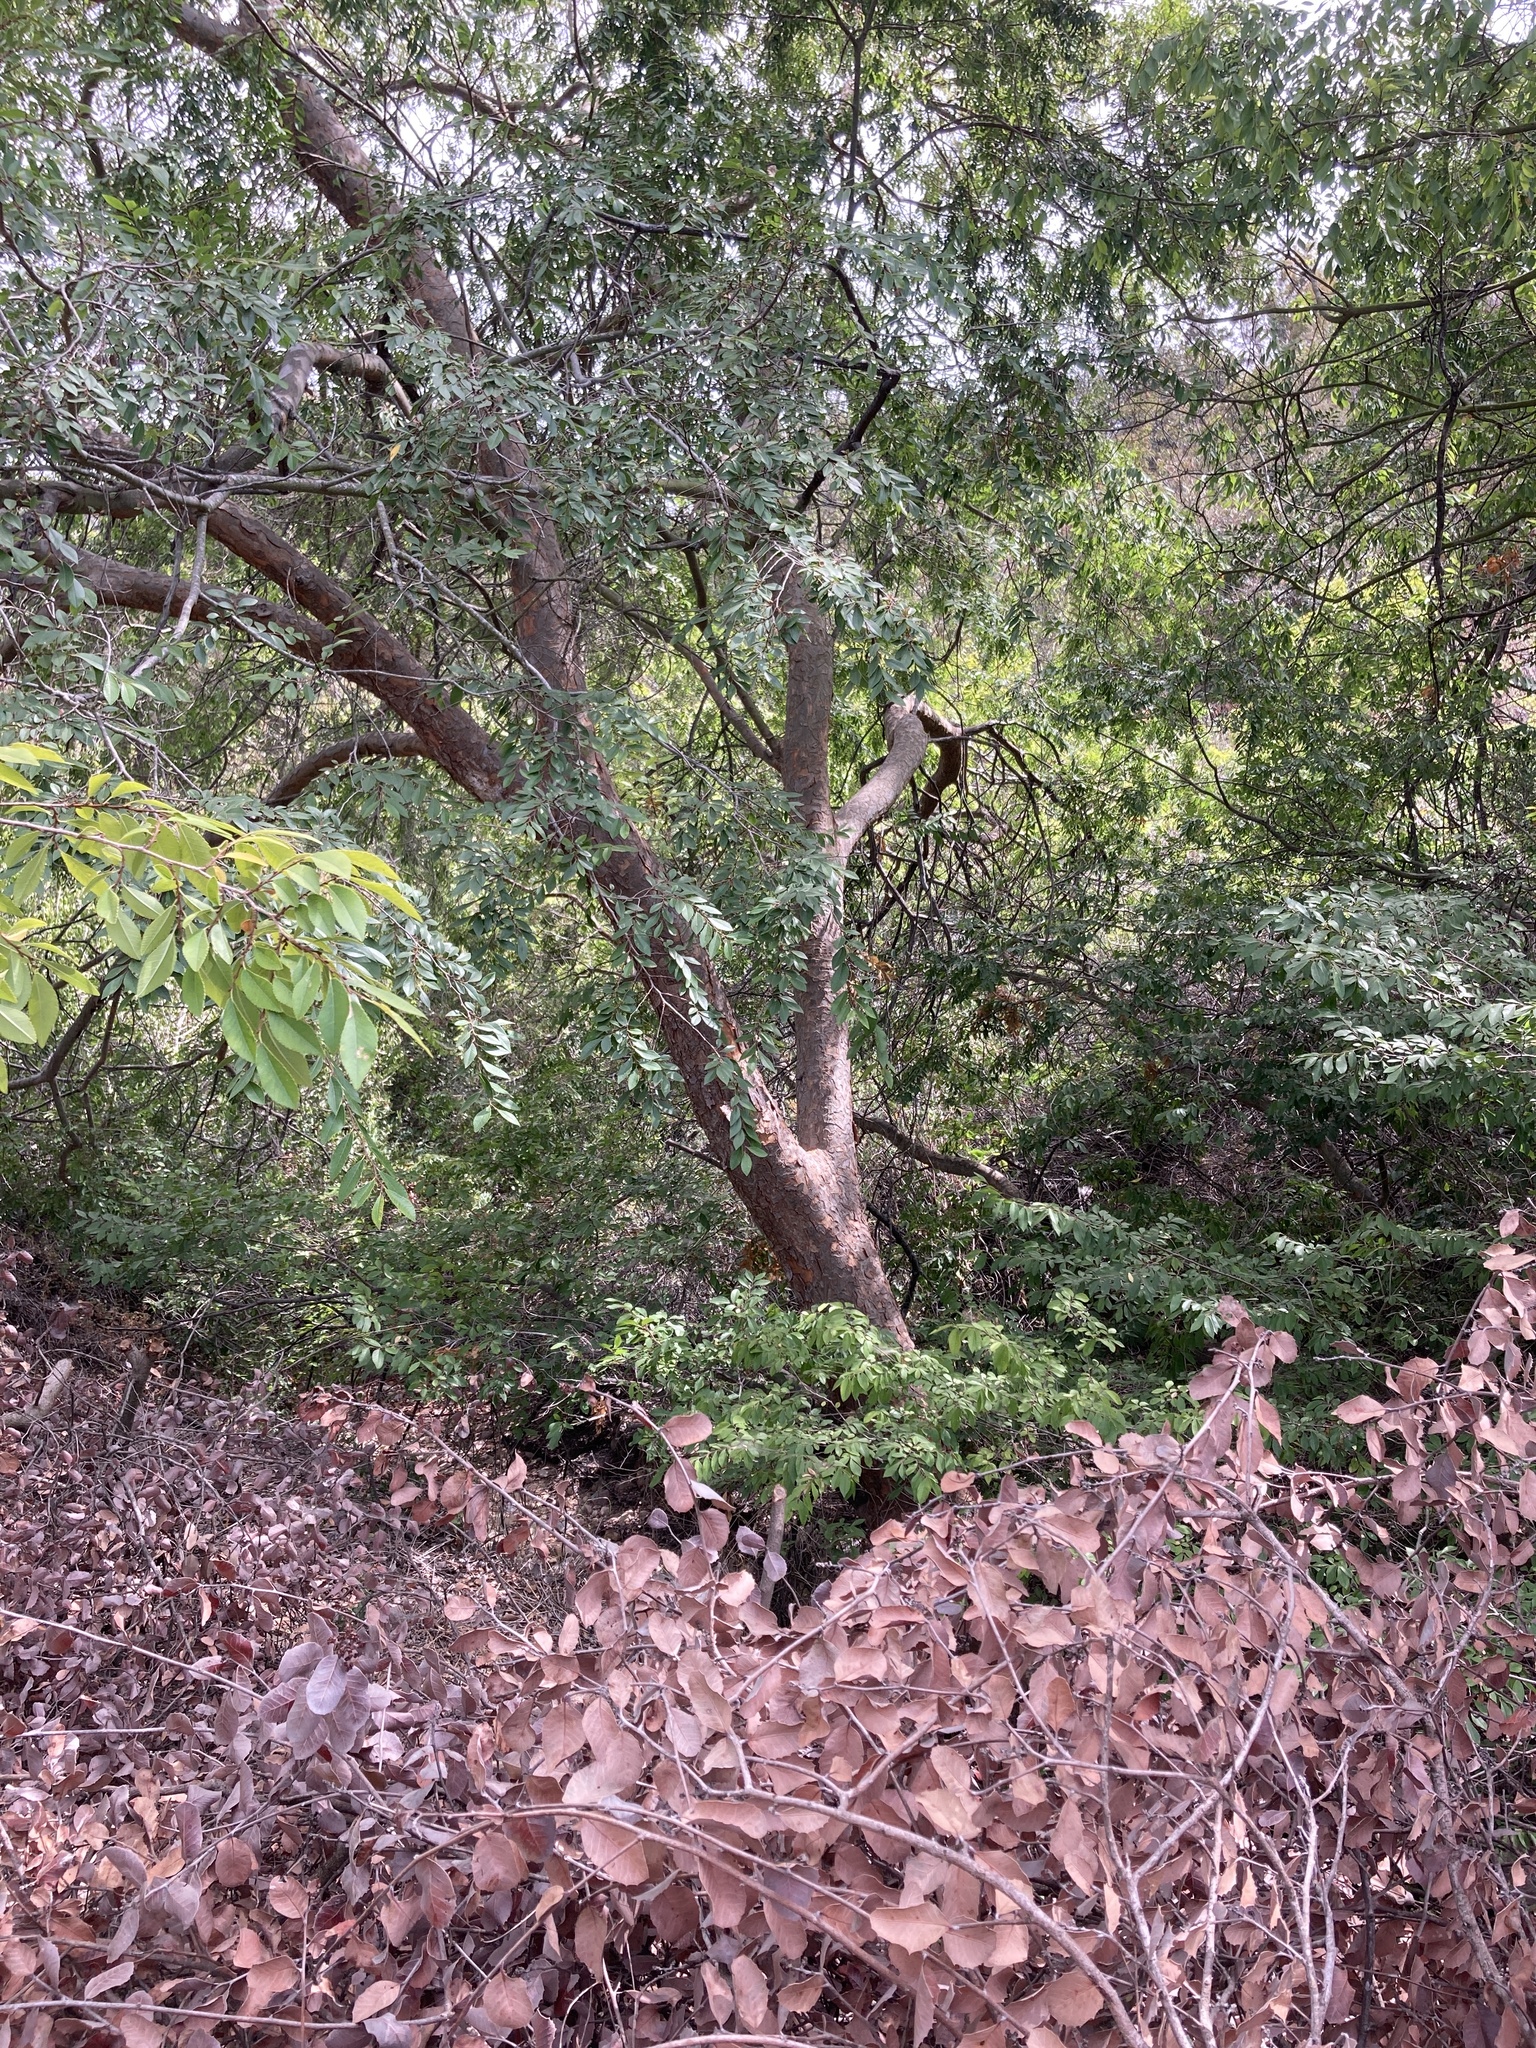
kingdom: Plantae
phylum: Tracheophyta
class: Magnoliopsida
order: Rosales
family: Ulmaceae
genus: Ulmus
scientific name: Ulmus parvifolia
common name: Chinese elm
